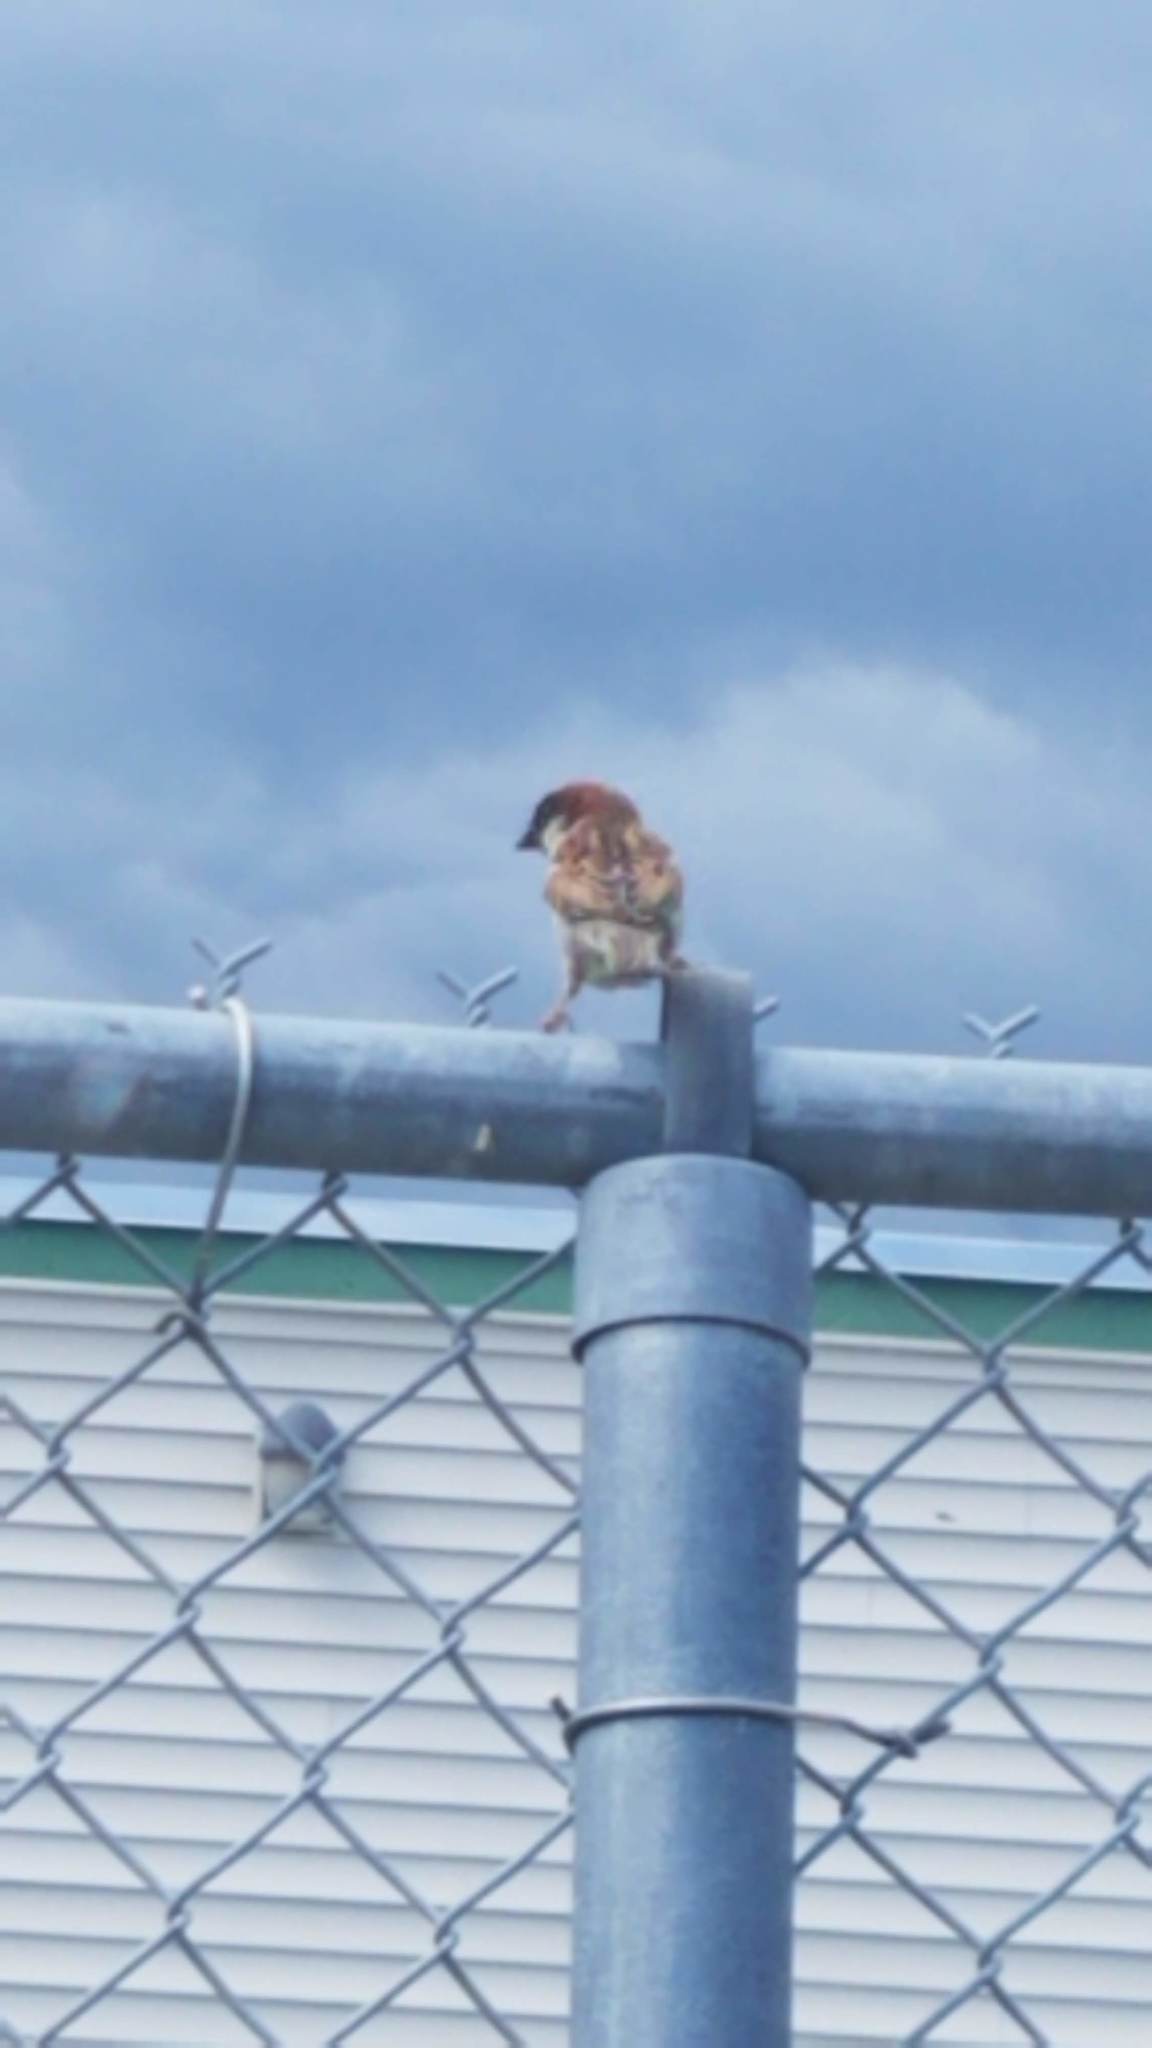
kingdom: Animalia
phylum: Chordata
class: Aves
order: Passeriformes
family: Passeridae
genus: Passer
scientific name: Passer domesticus
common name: House sparrow
